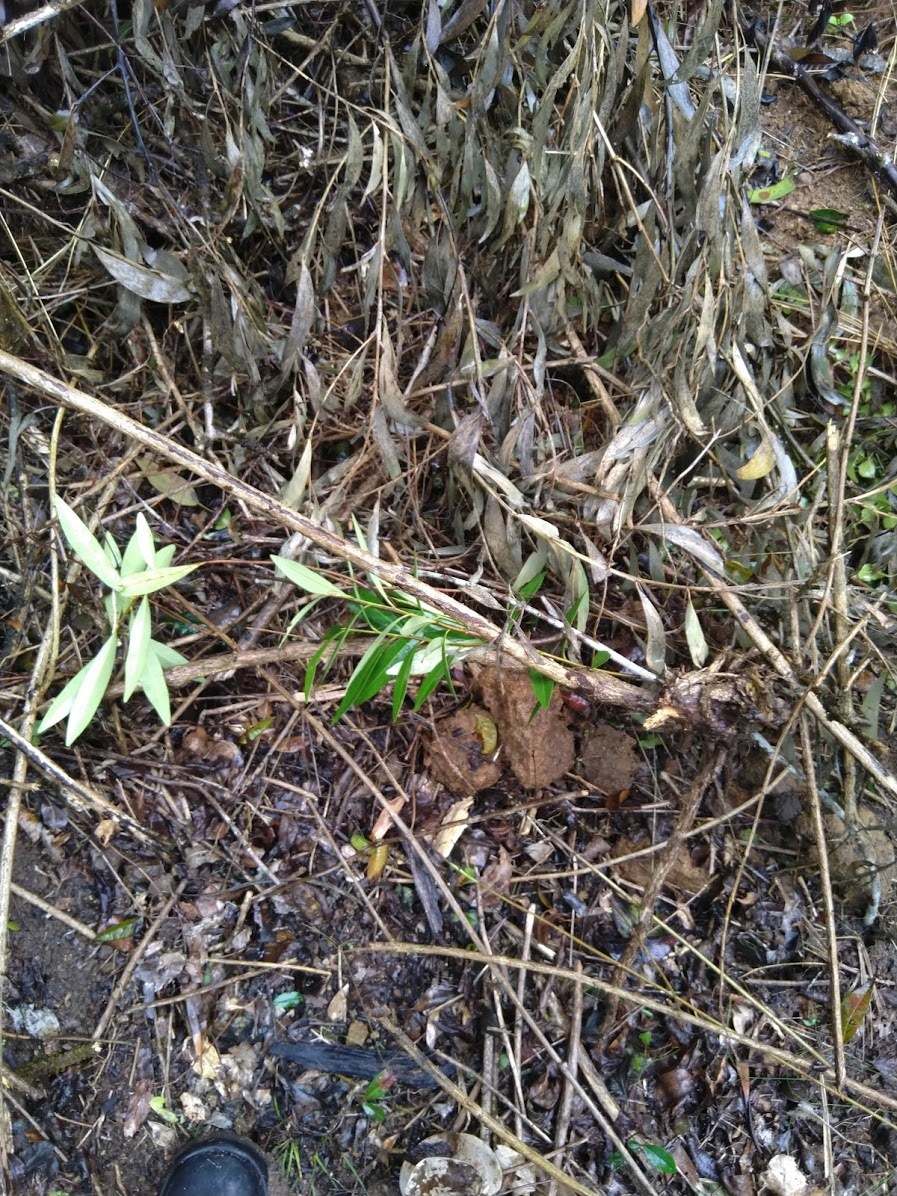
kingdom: Plantae
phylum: Tracheophyta
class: Magnoliopsida
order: Sapindales
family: Simaroubaceae
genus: Samadera
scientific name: Samadera bidwillii
